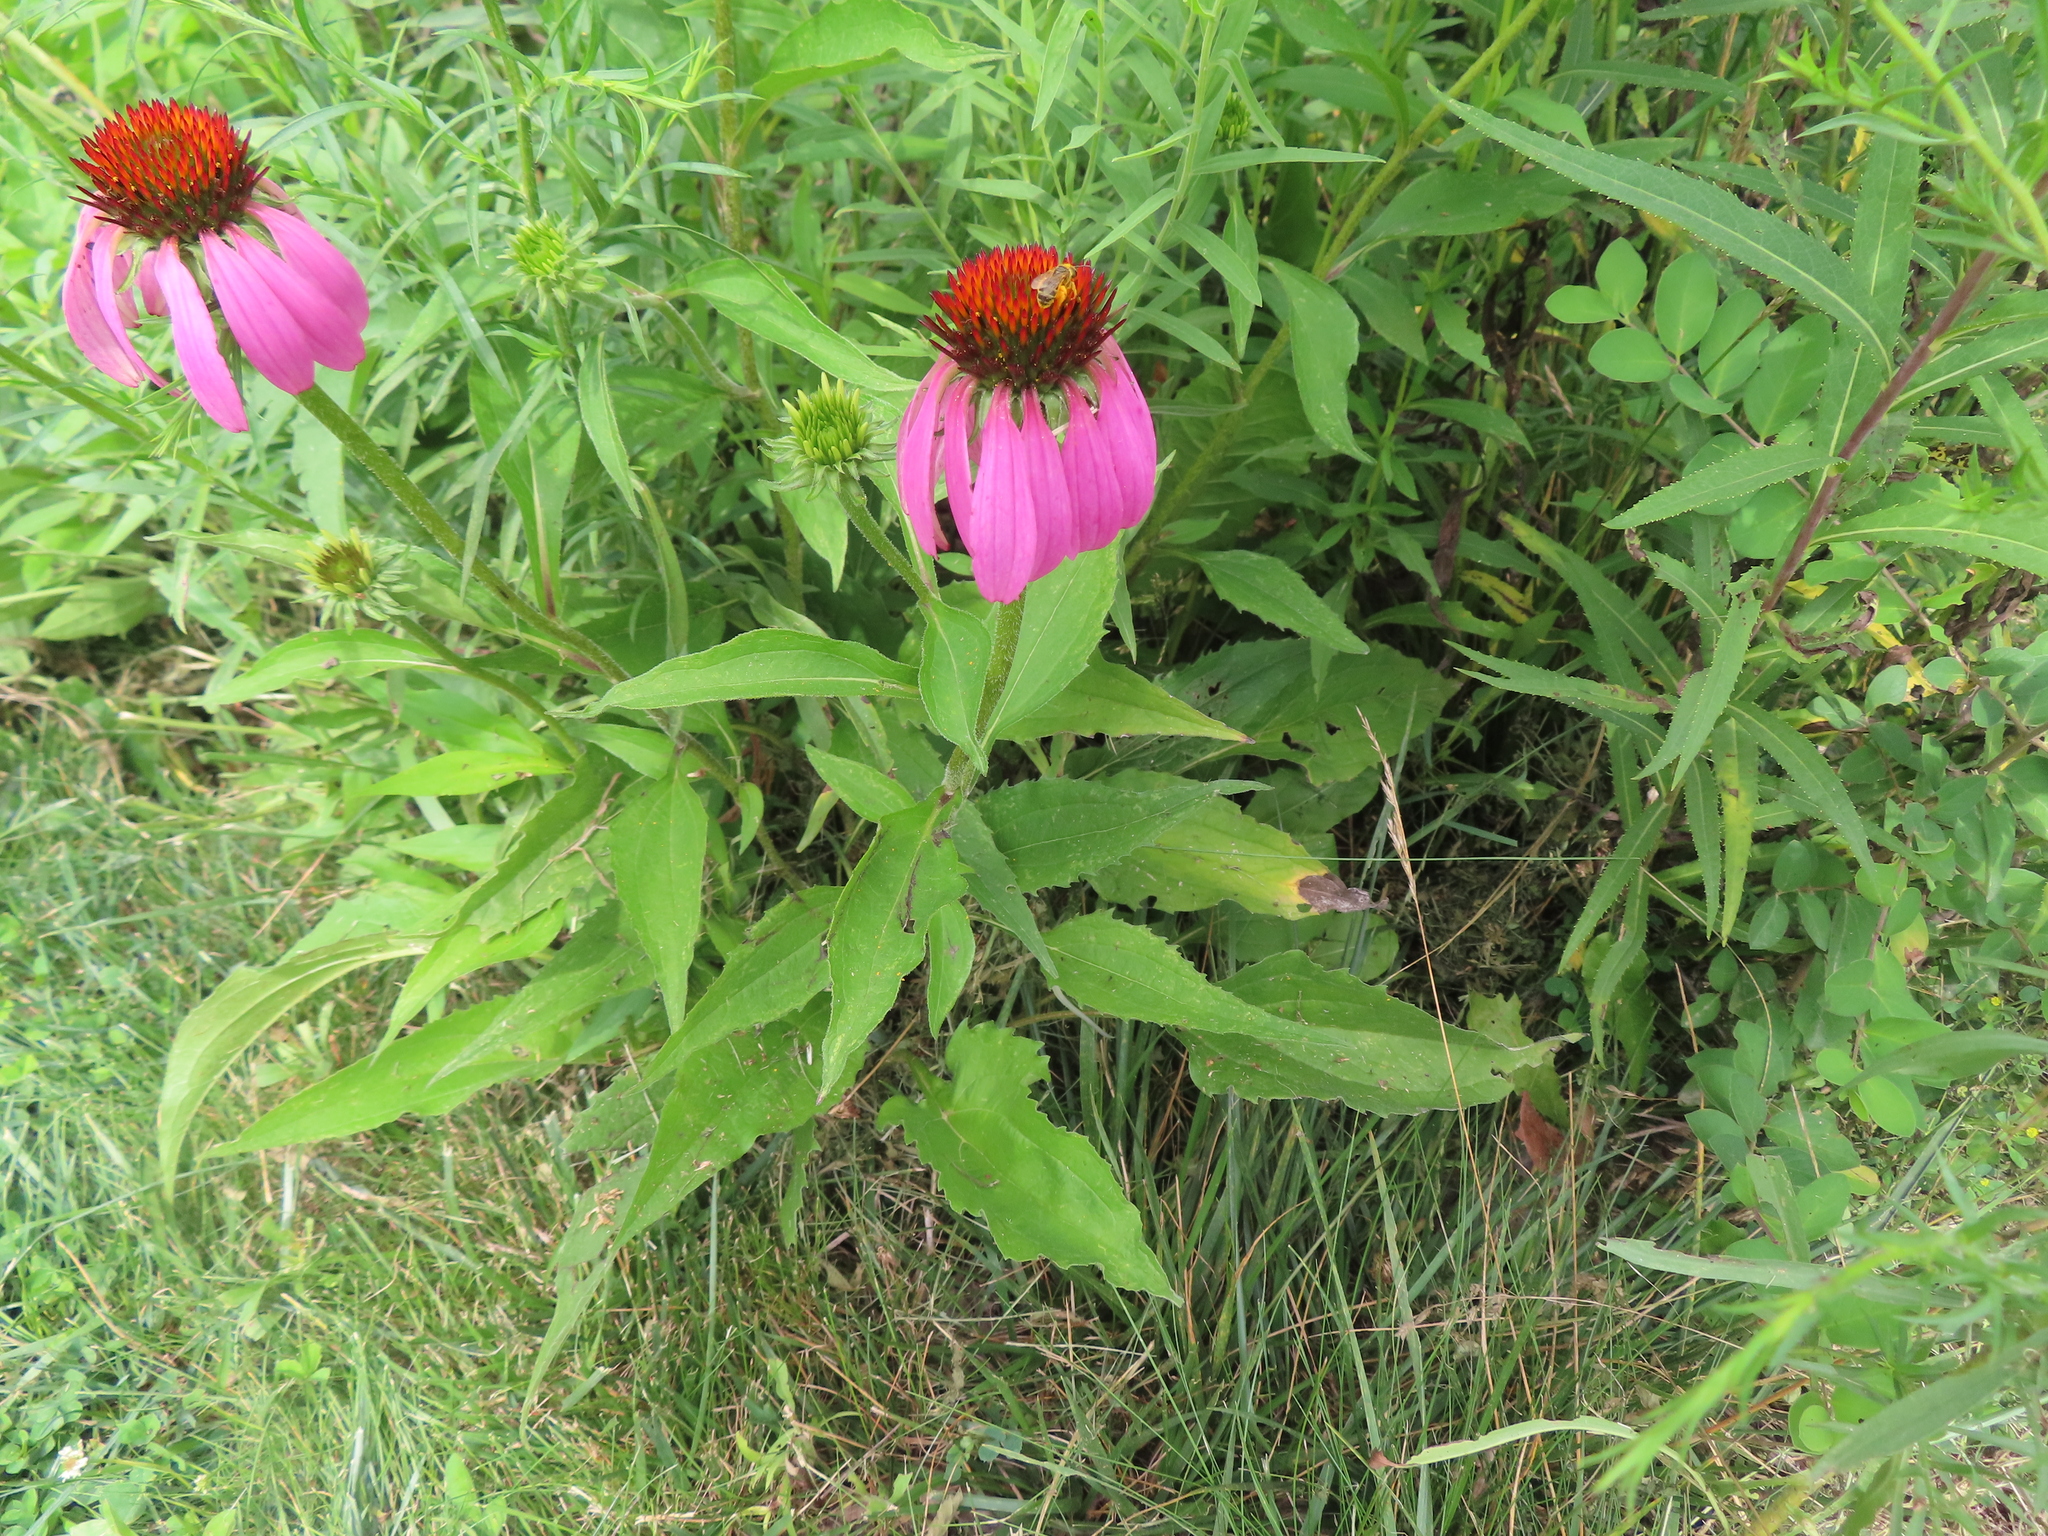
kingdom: Plantae
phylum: Tracheophyta
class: Magnoliopsida
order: Asterales
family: Asteraceae
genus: Echinacea
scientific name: Echinacea purpurea
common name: Broad-leaved purple coneflower
